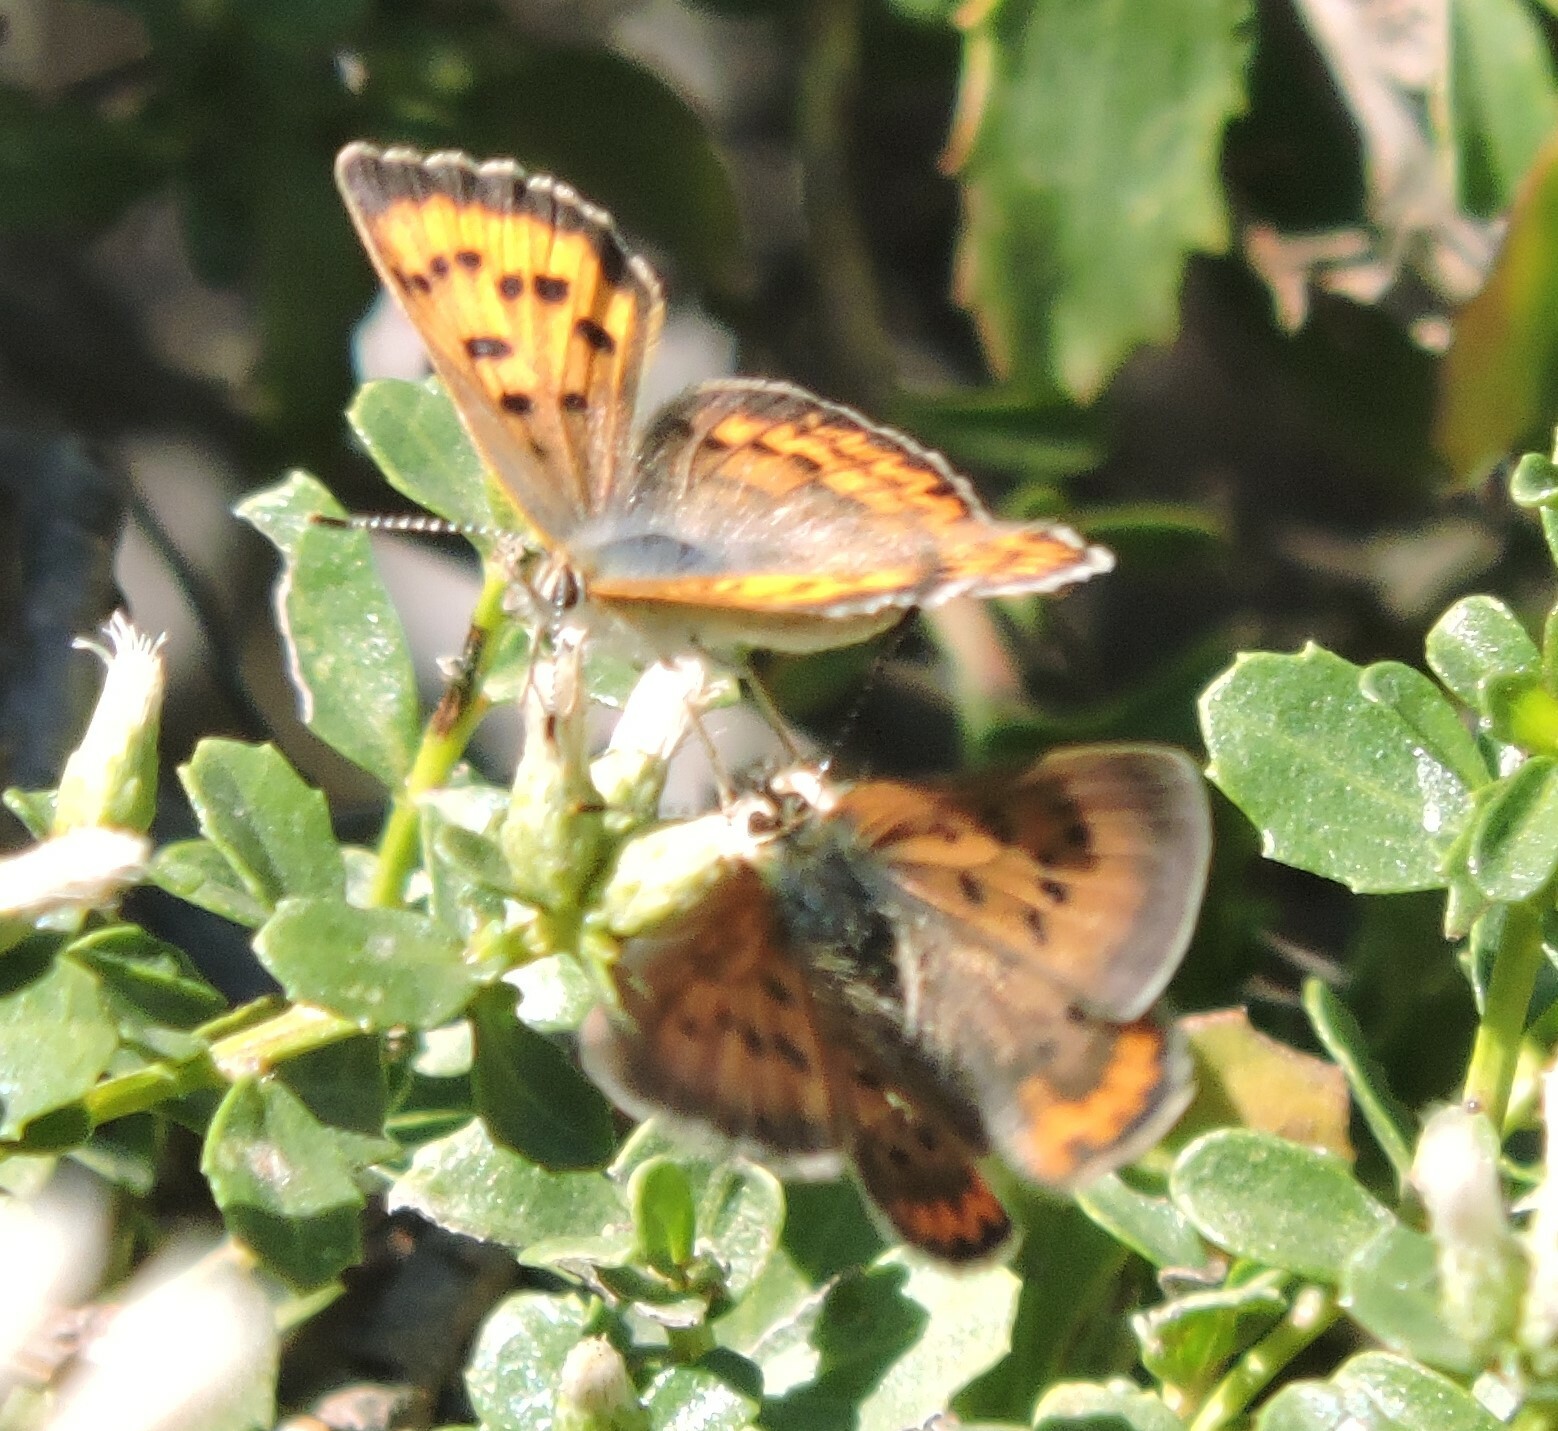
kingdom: Animalia
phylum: Arthropoda
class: Insecta
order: Lepidoptera
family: Lycaenidae
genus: Tharsalea
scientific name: Tharsalea helloides
